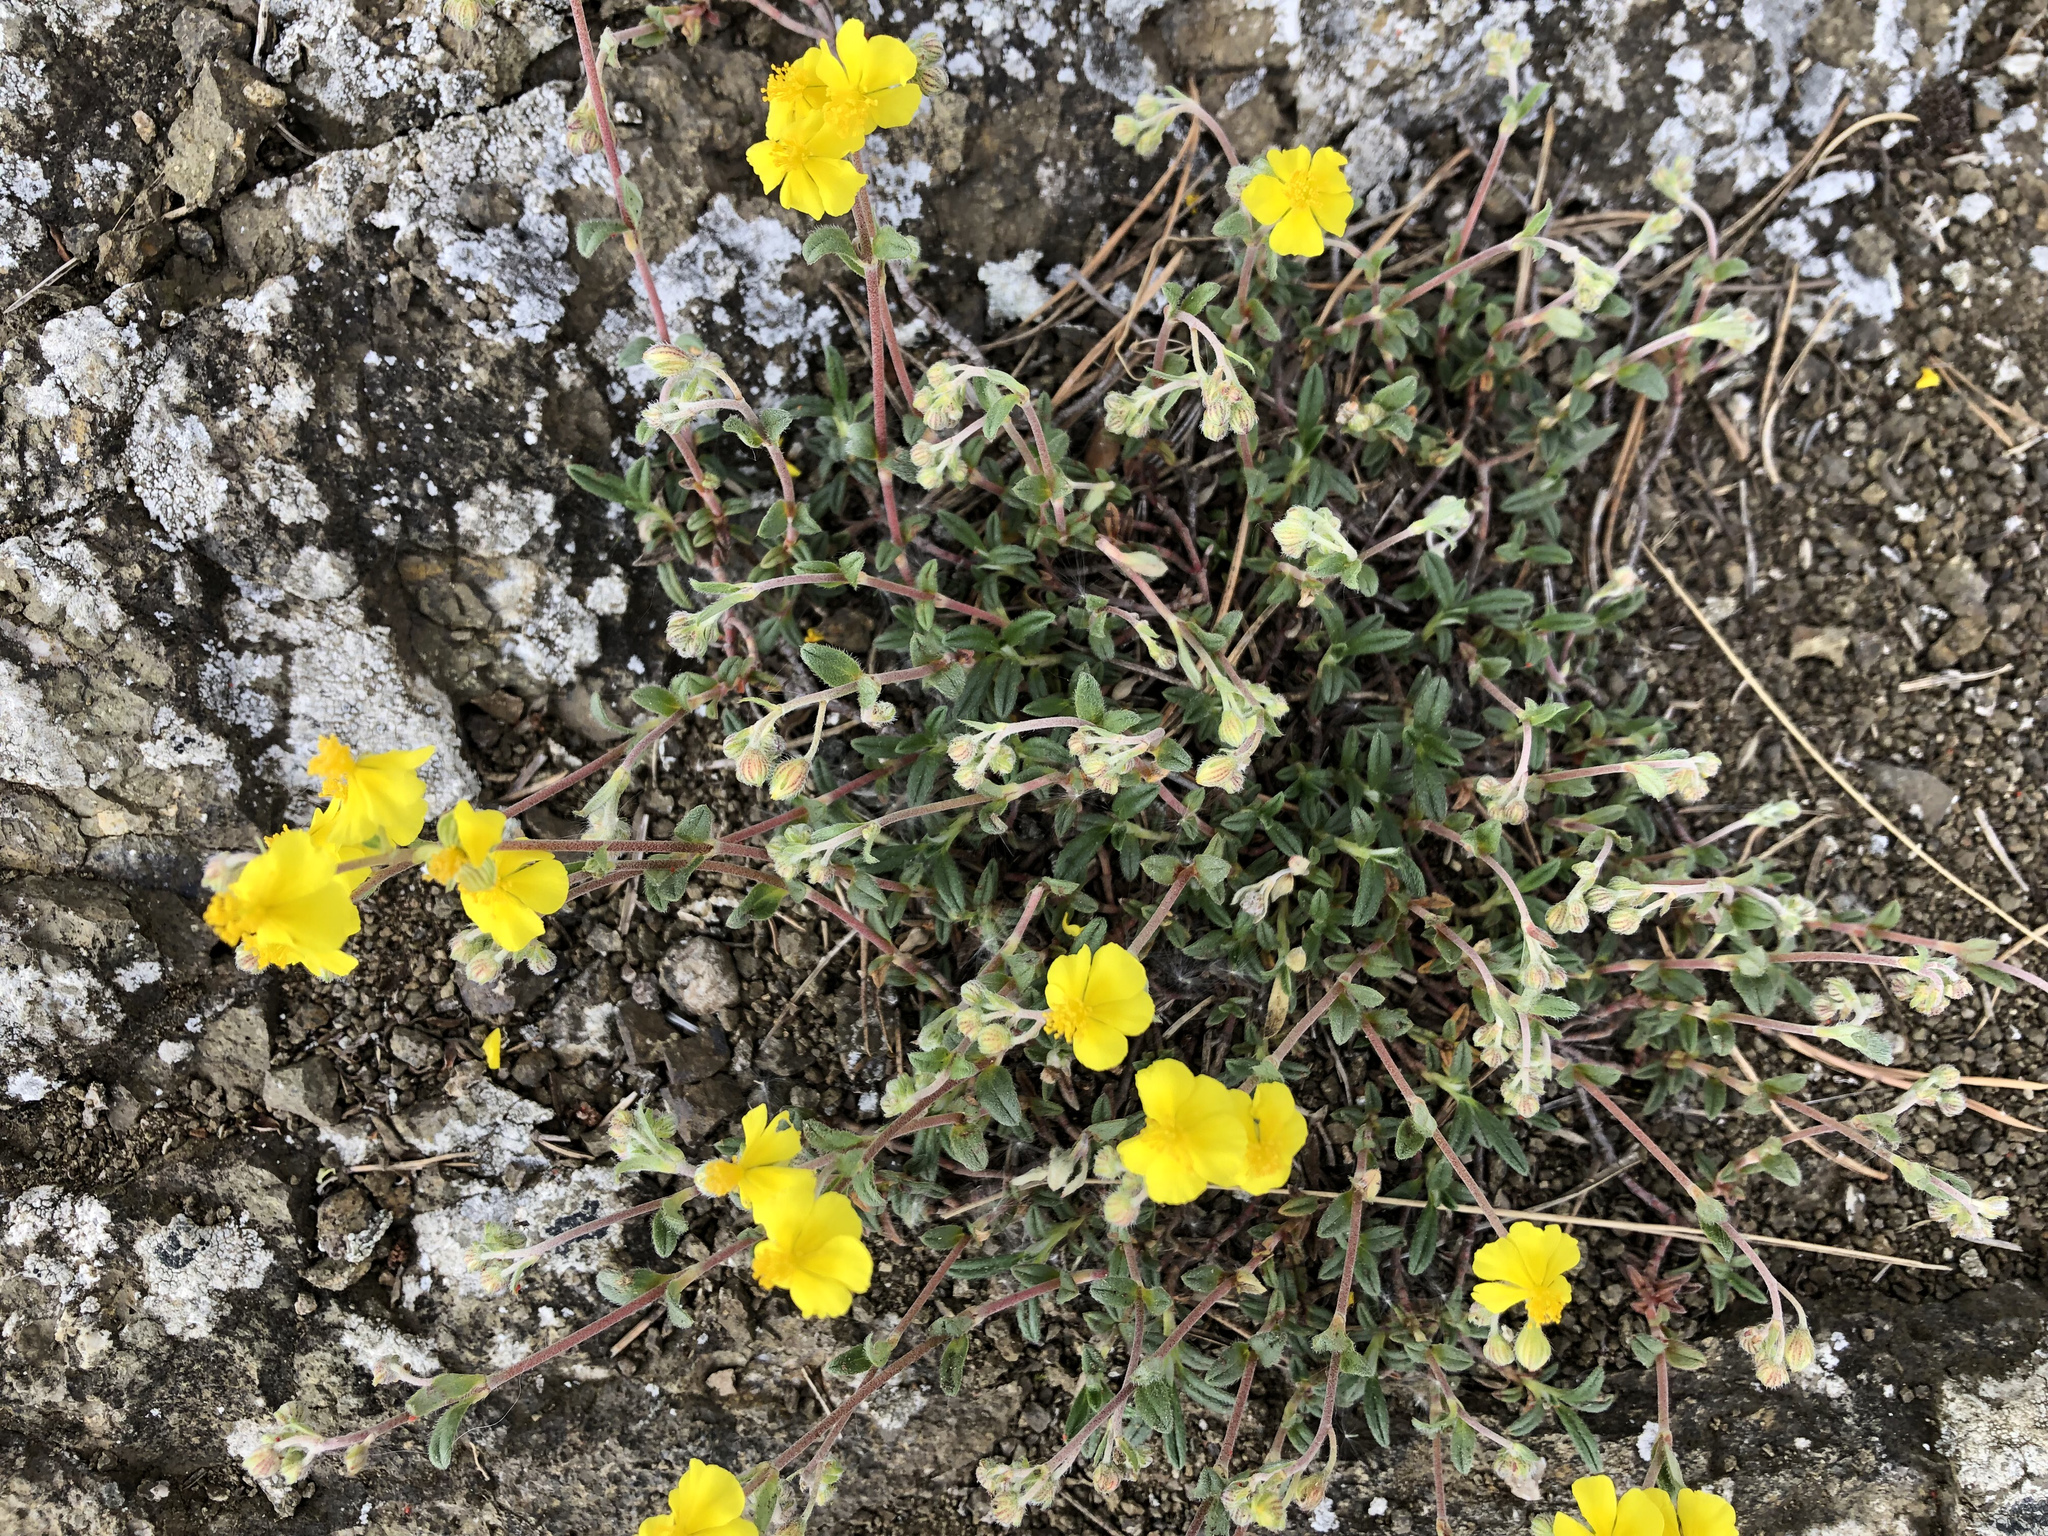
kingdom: Plantae
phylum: Tracheophyta
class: Magnoliopsida
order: Malvales
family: Cistaceae
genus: Helianthemum
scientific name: Helianthemum canum
